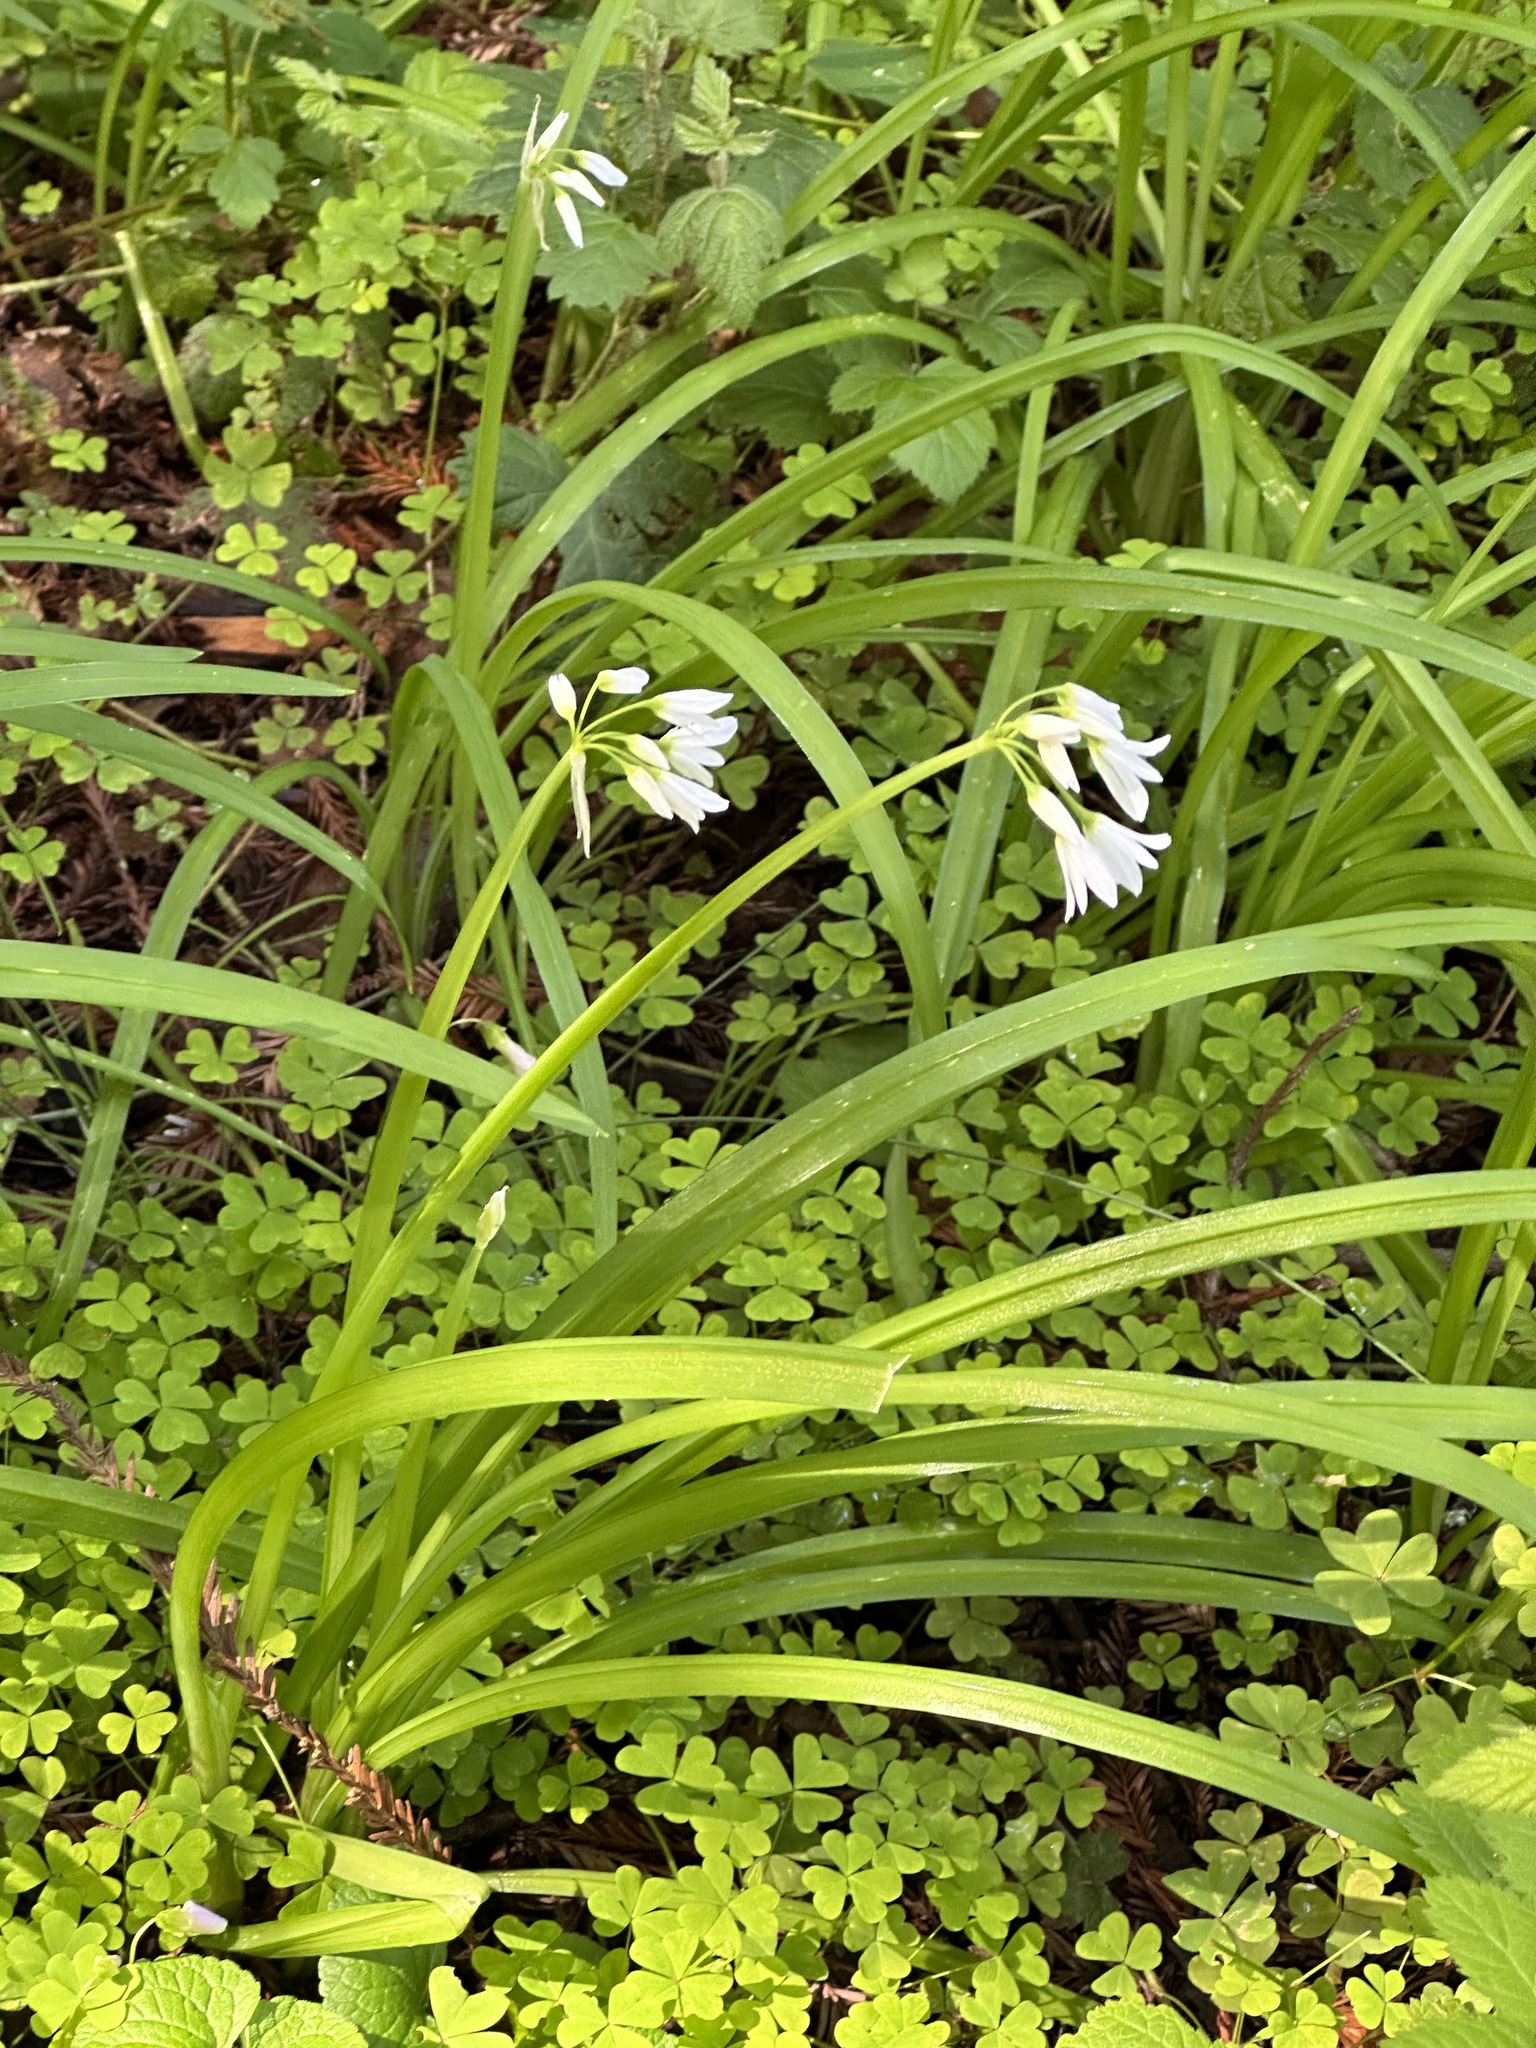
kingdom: Plantae
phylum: Tracheophyta
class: Liliopsida
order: Asparagales
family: Amaryllidaceae
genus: Allium
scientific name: Allium triquetrum
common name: Three-cornered garlic
